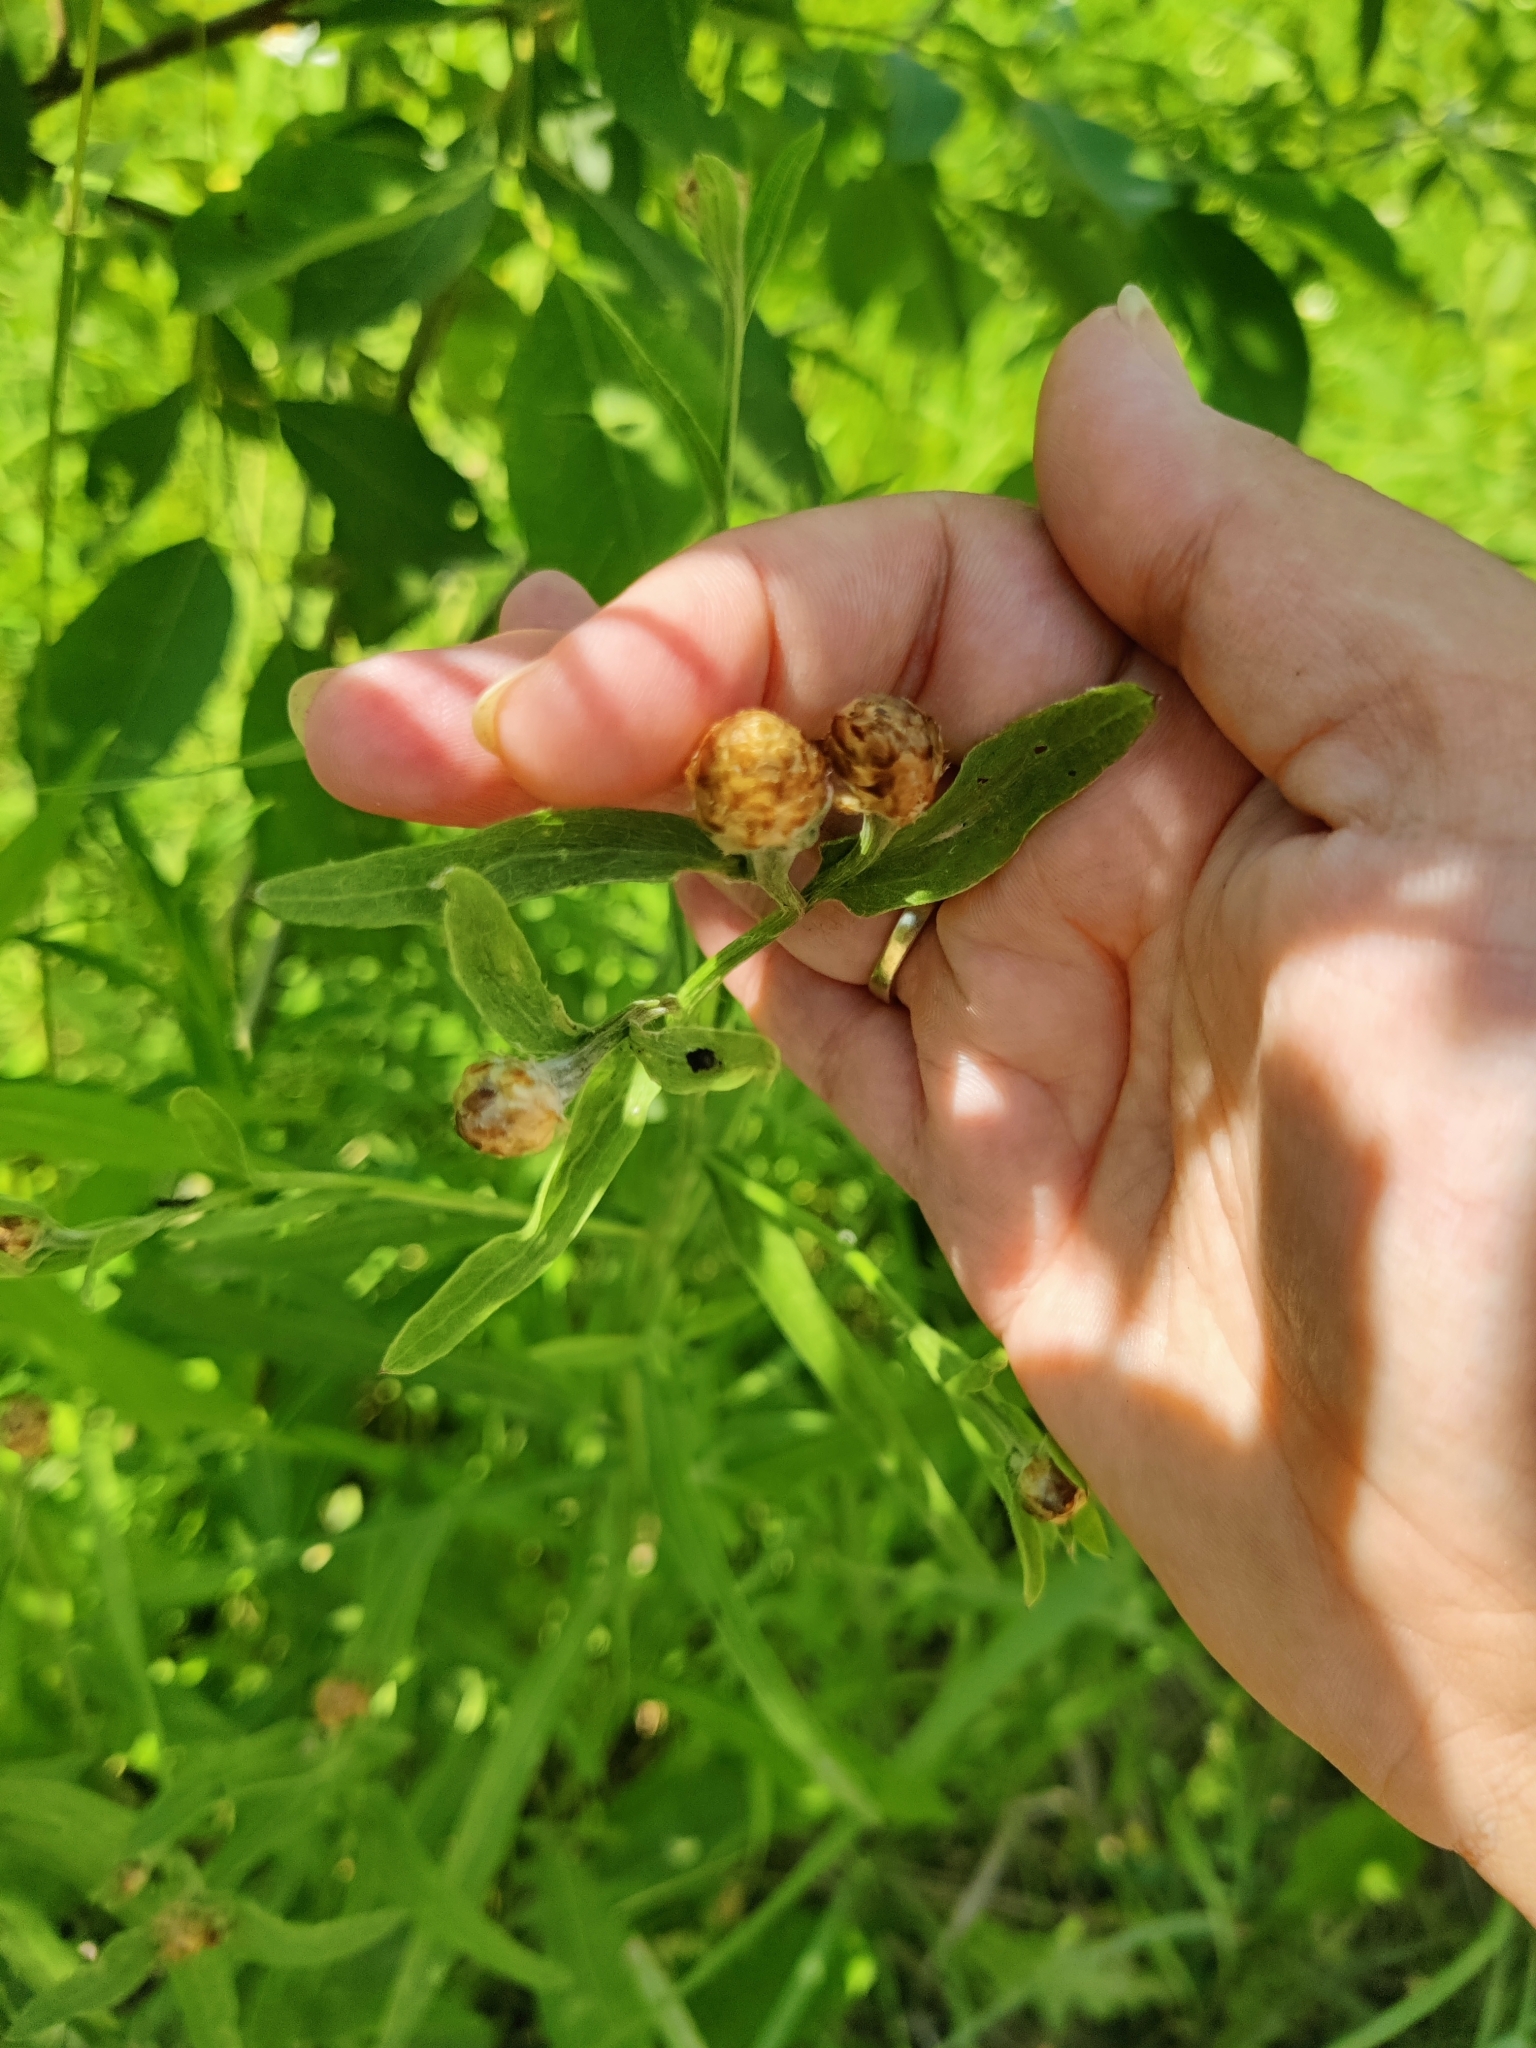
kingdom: Plantae
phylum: Tracheophyta
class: Magnoliopsida
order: Asterales
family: Asteraceae
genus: Centaurea
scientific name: Centaurea jacea
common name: Brown knapweed
